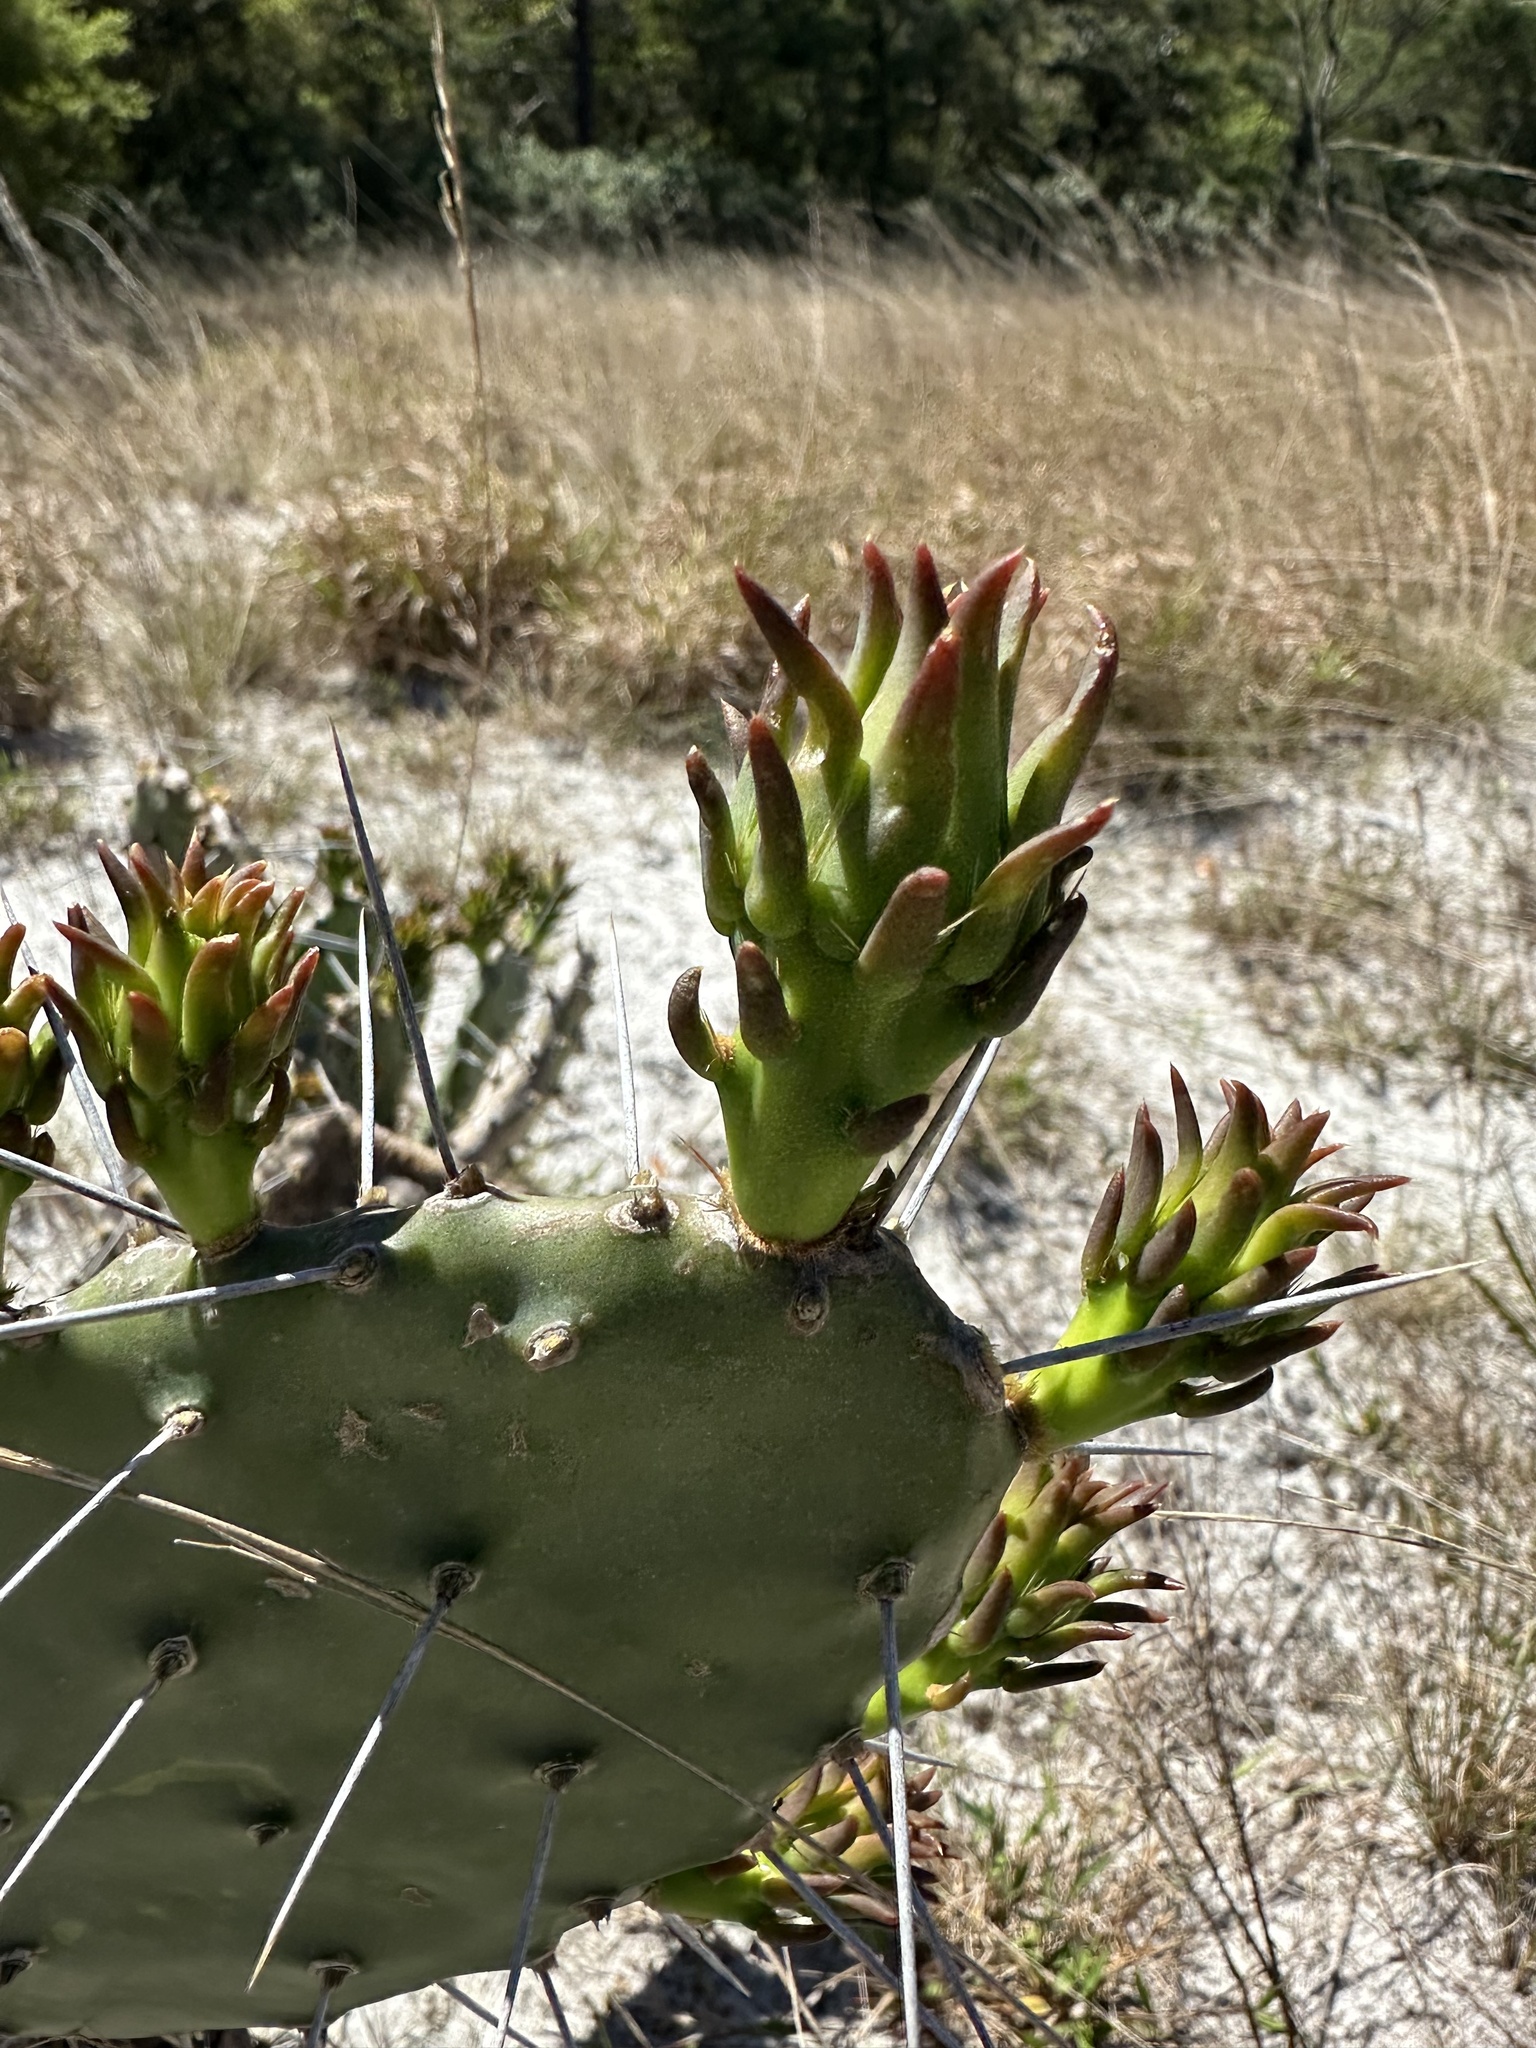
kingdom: Plantae
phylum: Tracheophyta
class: Magnoliopsida
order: Caryophyllales
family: Cactaceae
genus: Opuntia
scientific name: Opuntia austrina
